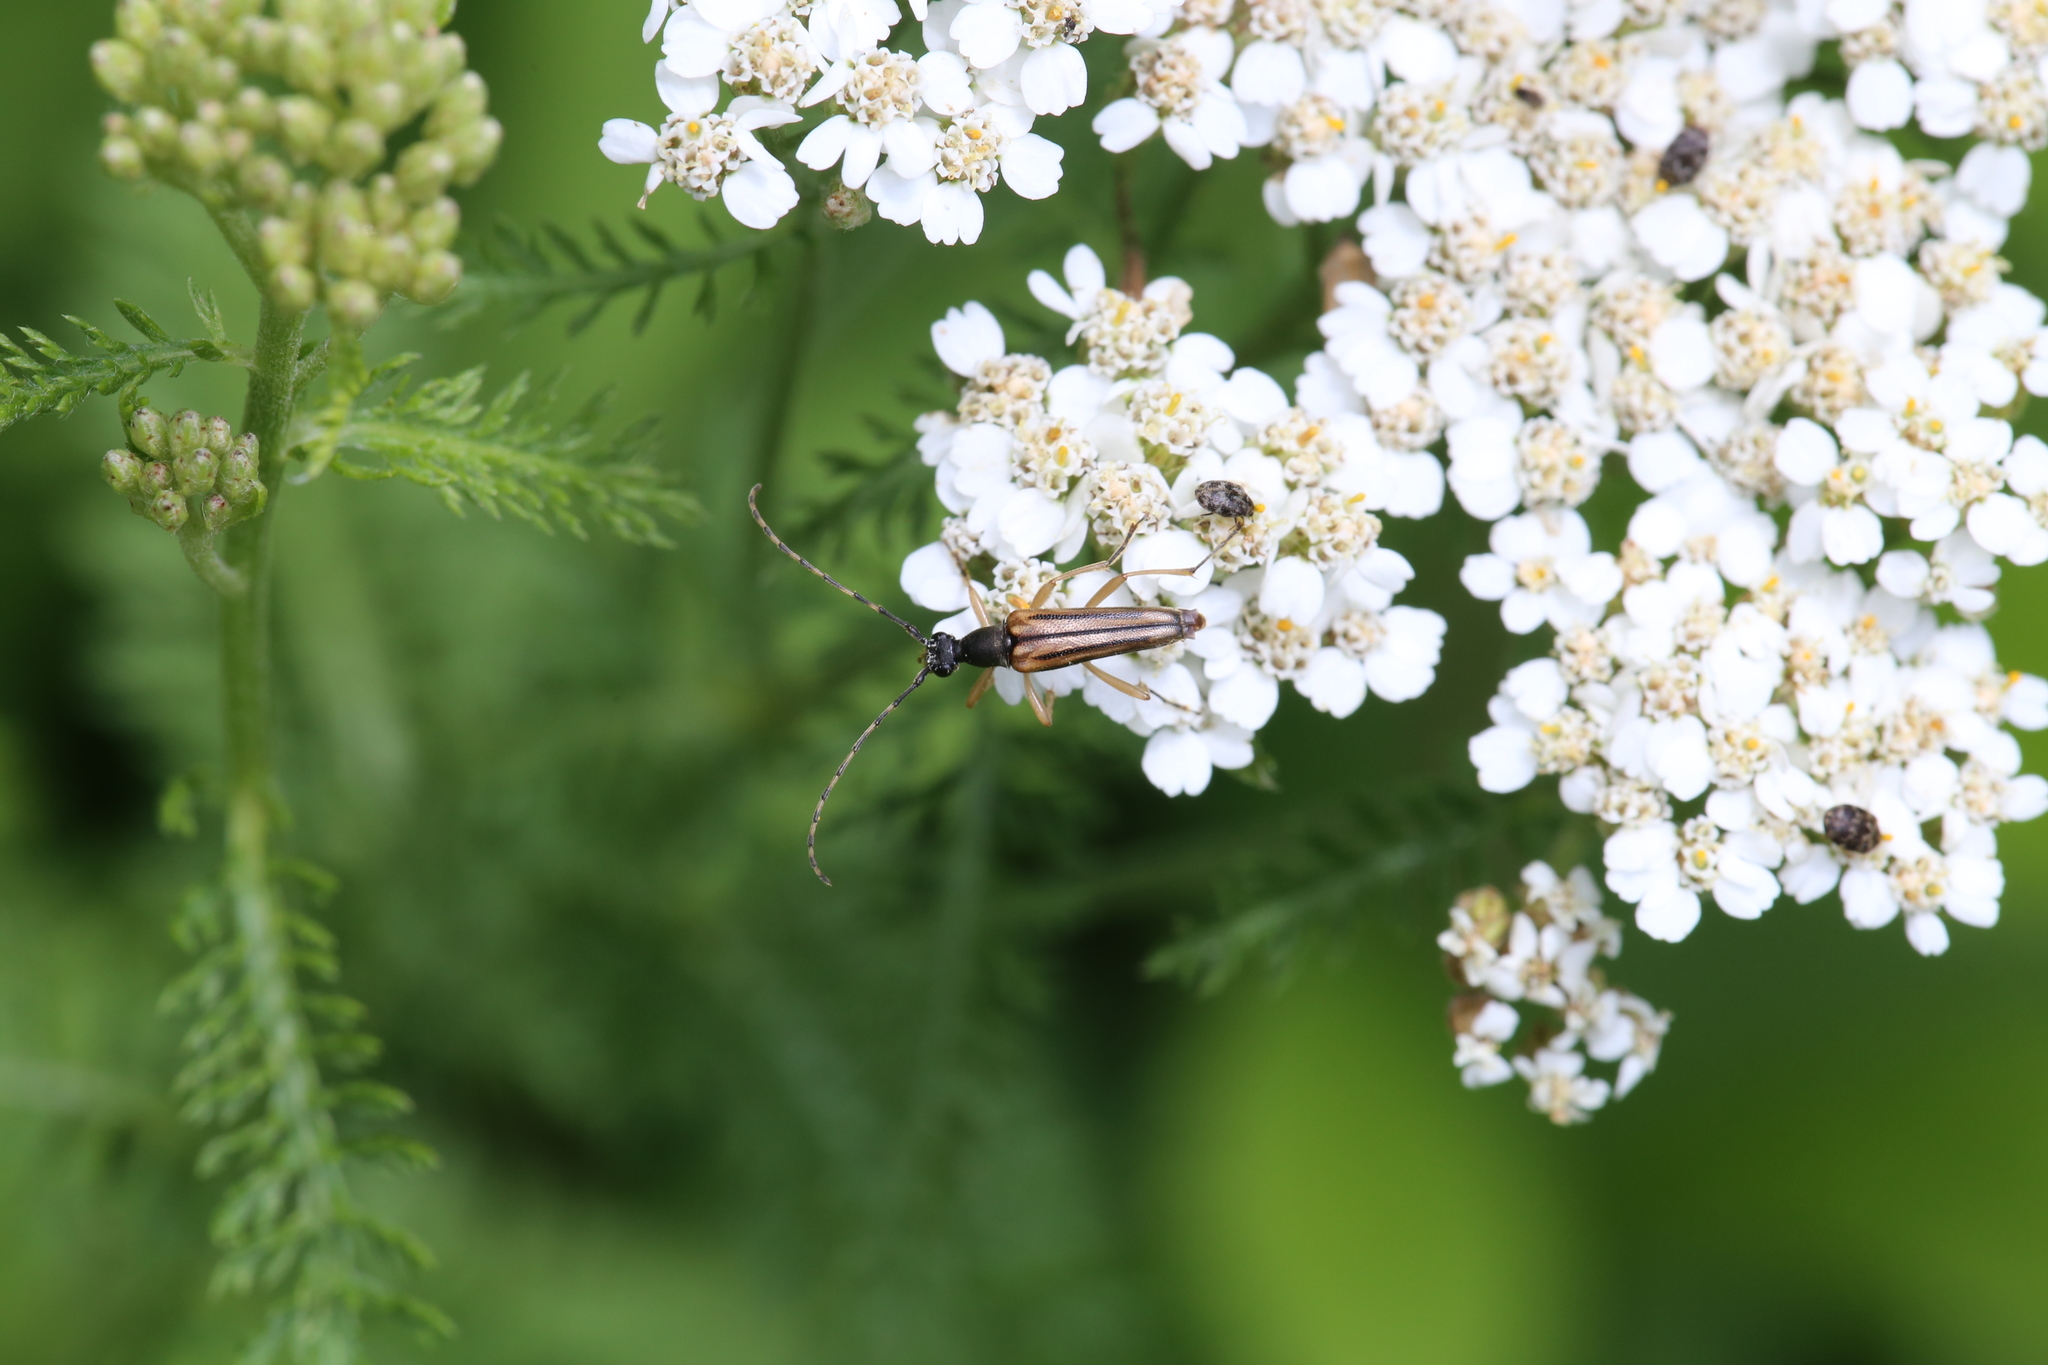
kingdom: Animalia
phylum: Arthropoda
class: Insecta
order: Coleoptera
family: Cerambycidae
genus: Analeptura
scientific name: Analeptura lineola
